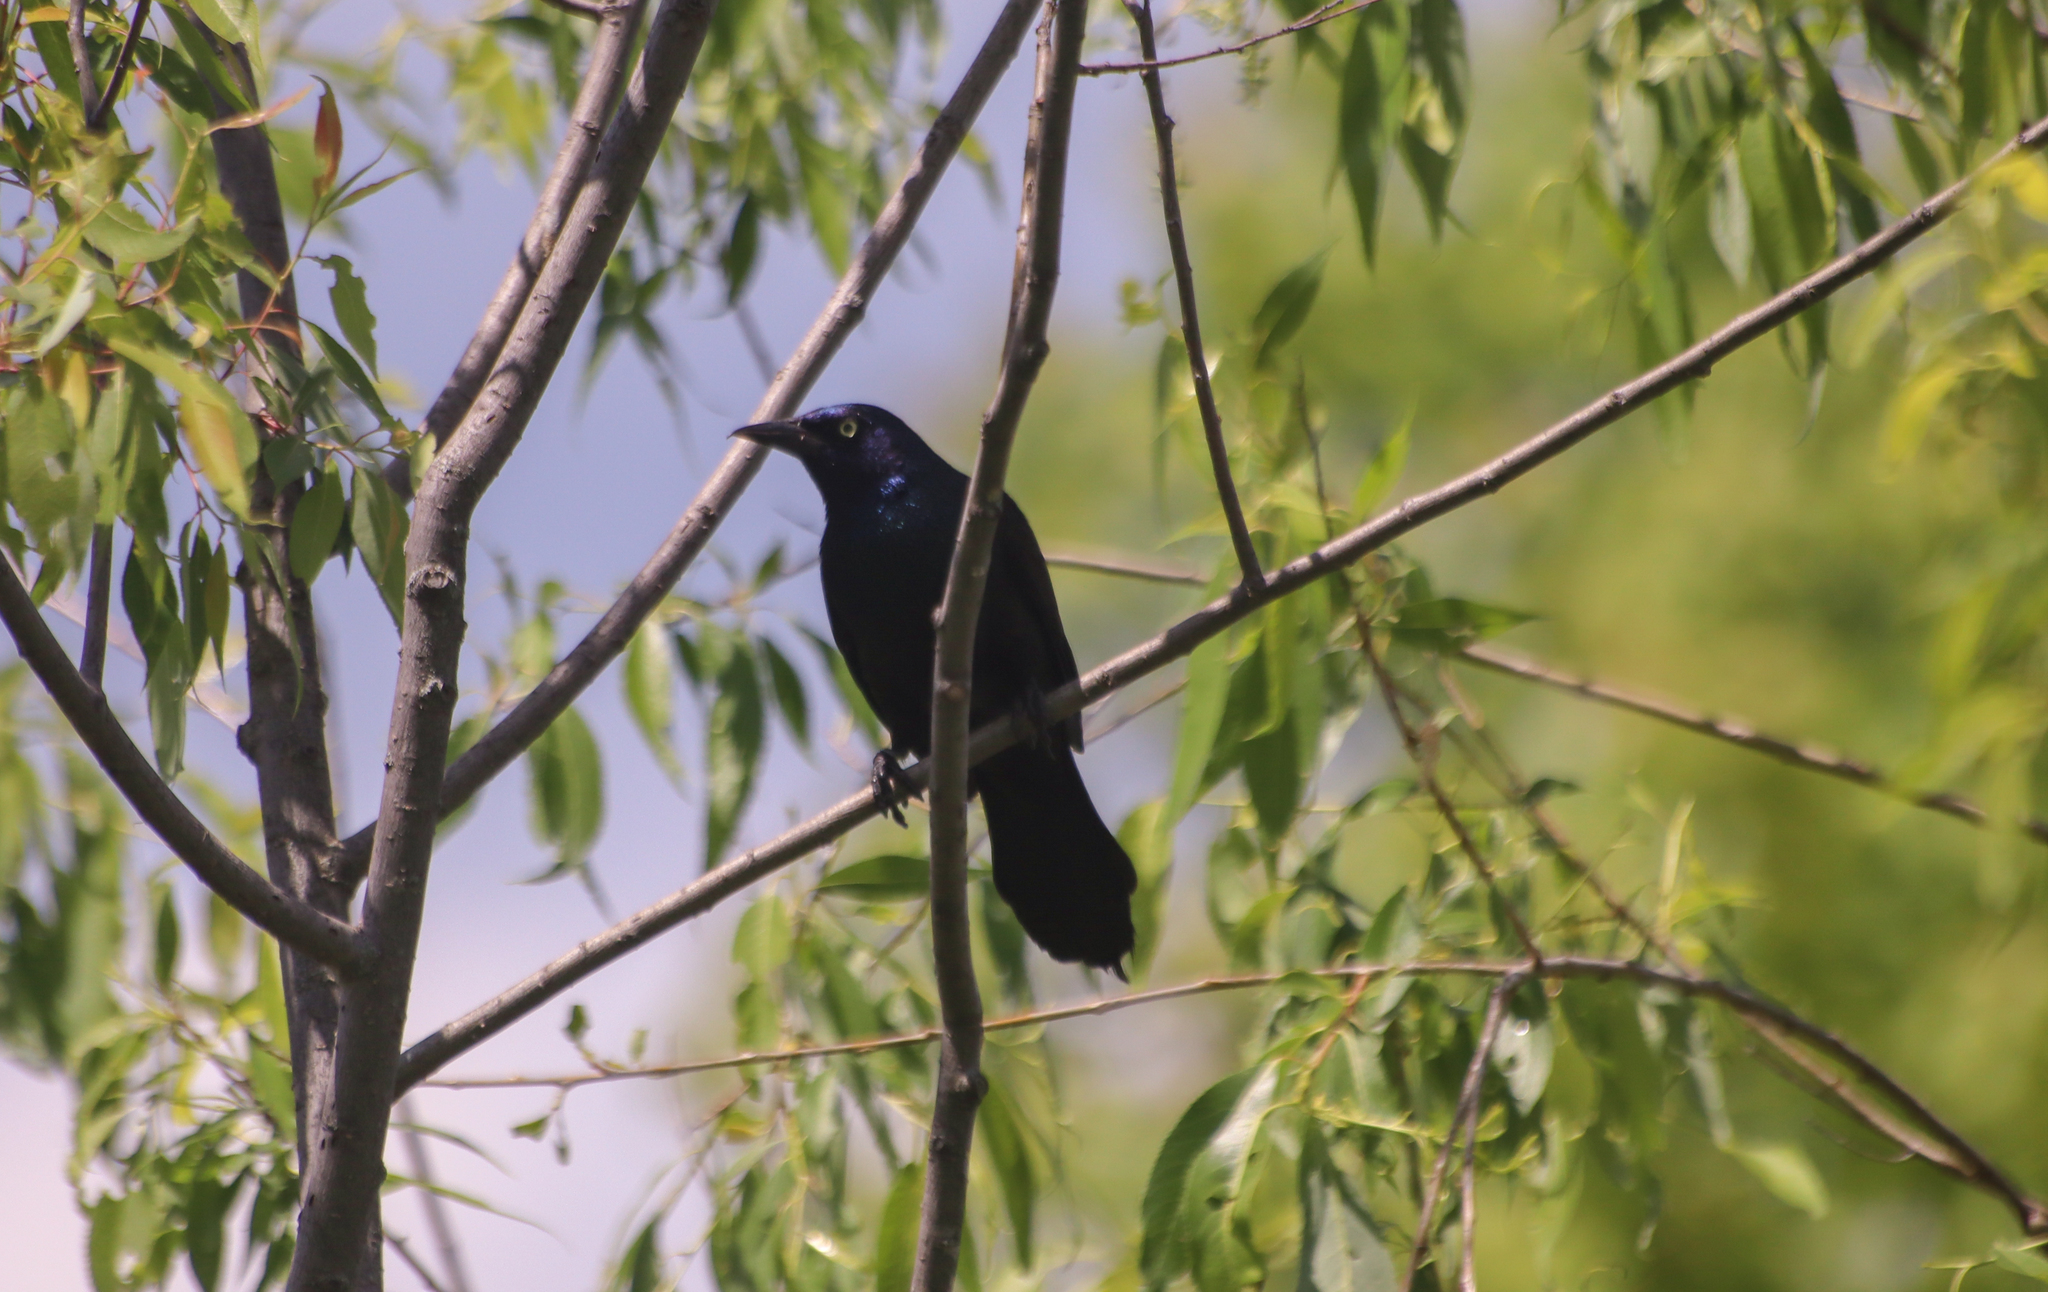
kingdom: Animalia
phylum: Chordata
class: Aves
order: Passeriformes
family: Icteridae
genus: Quiscalus
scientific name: Quiscalus quiscula
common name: Common grackle
